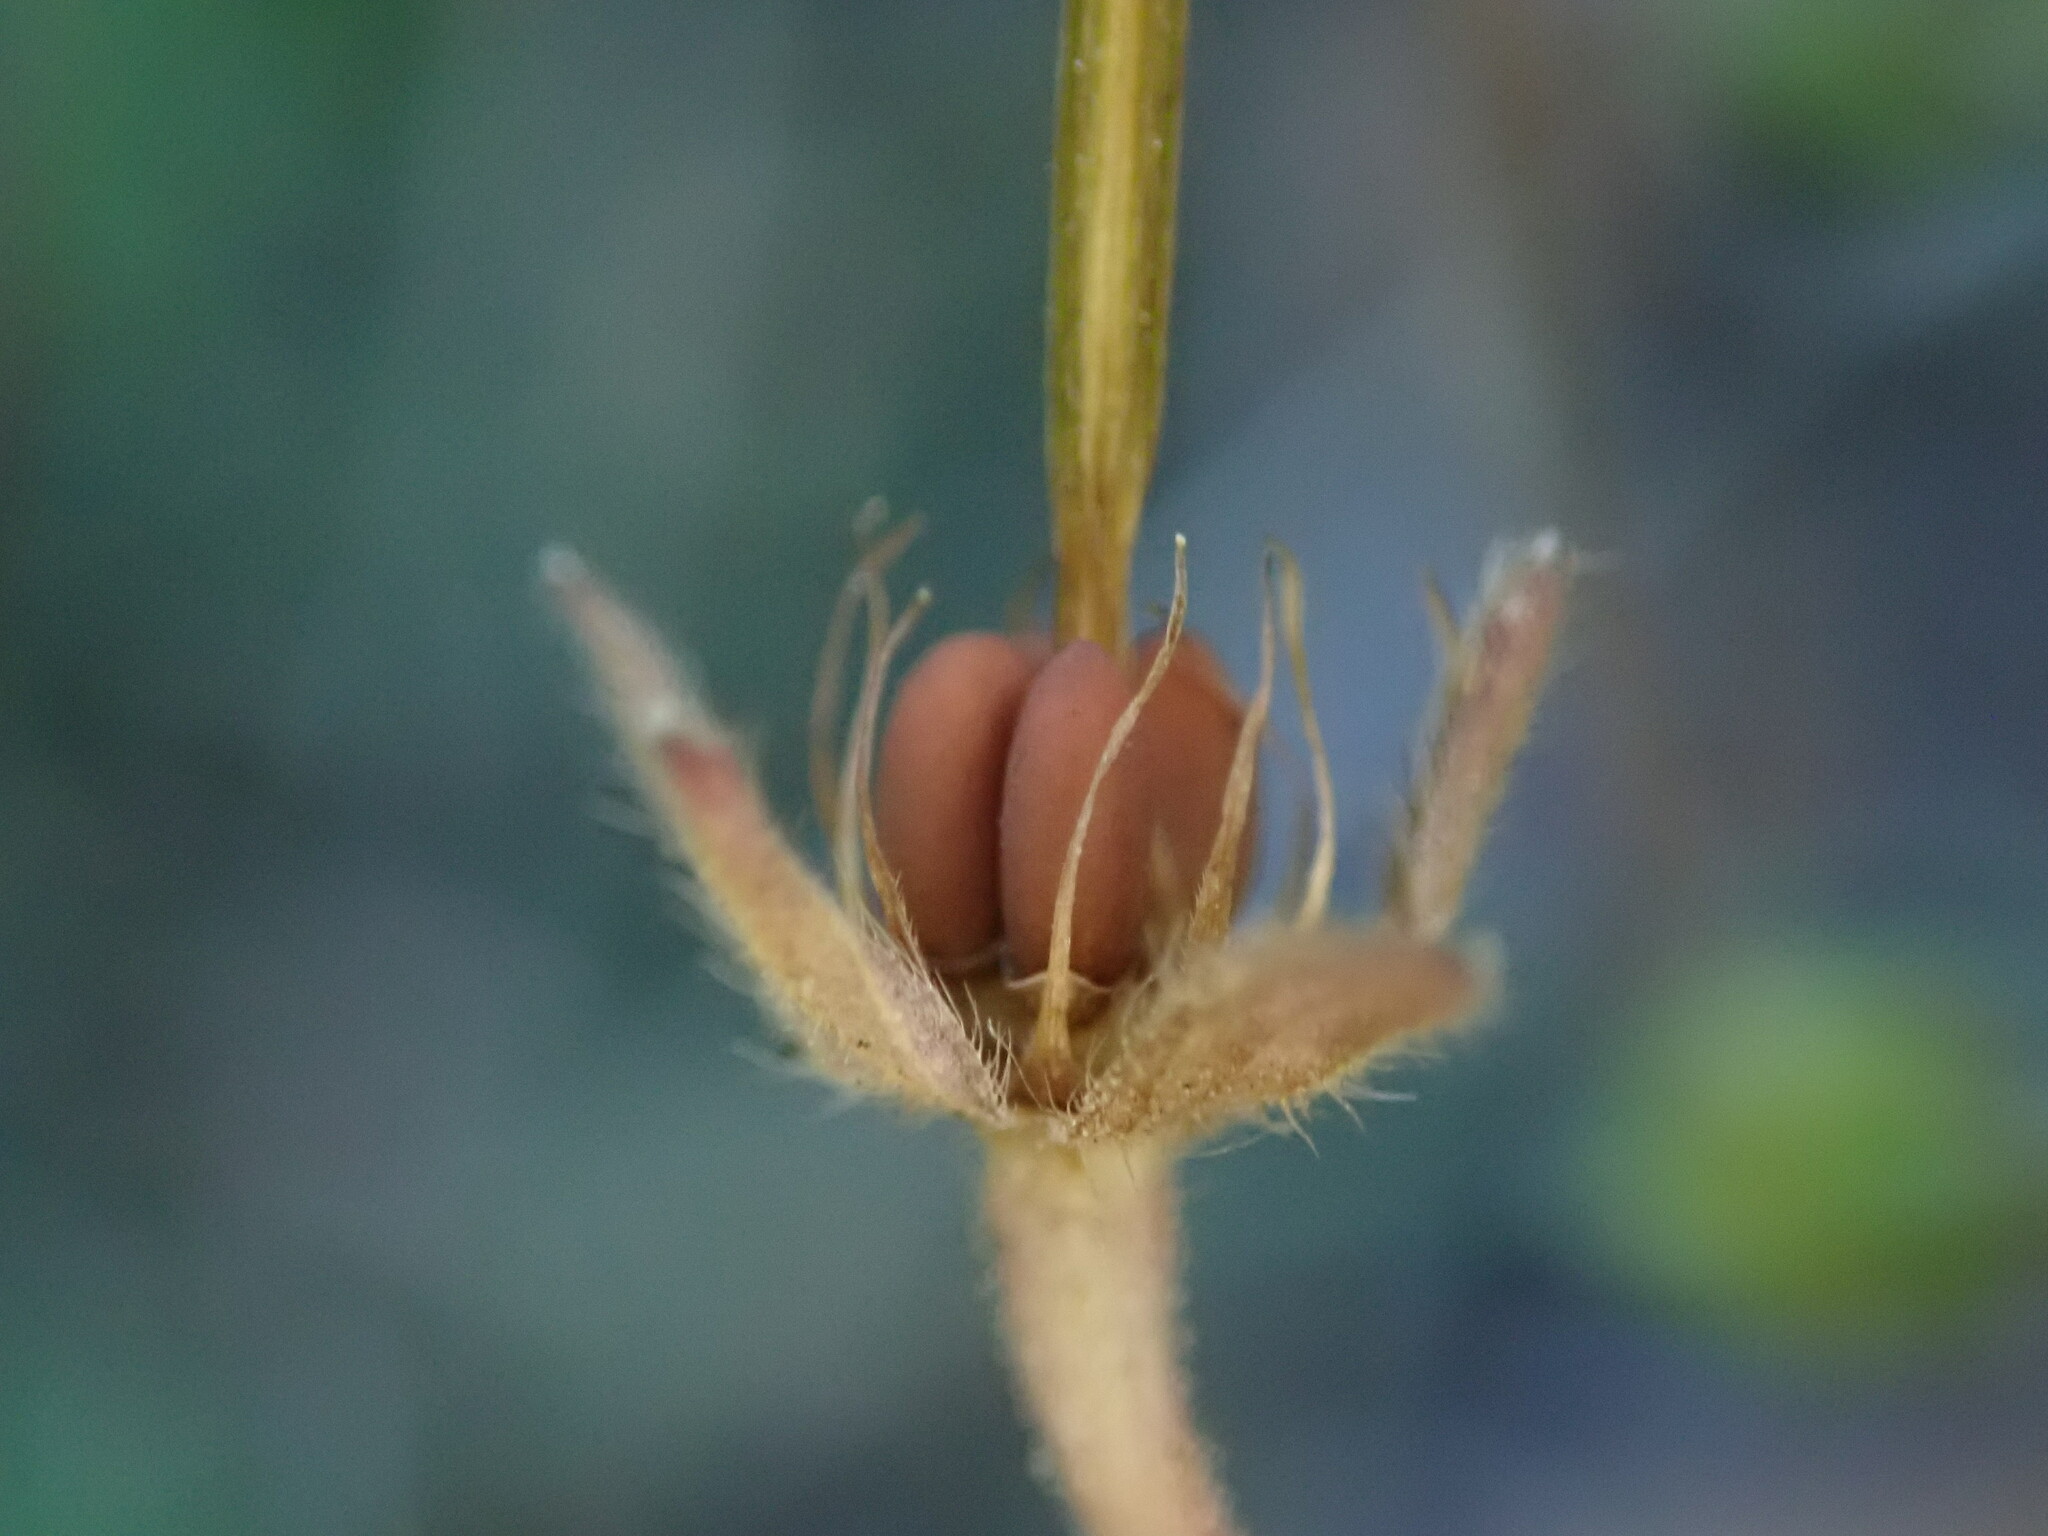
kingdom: Plantae
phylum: Tracheophyta
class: Magnoliopsida
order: Geraniales
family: Geraniaceae
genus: Geranium
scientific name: Geranium pyrenaicum
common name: Hedgerow crane's-bill
